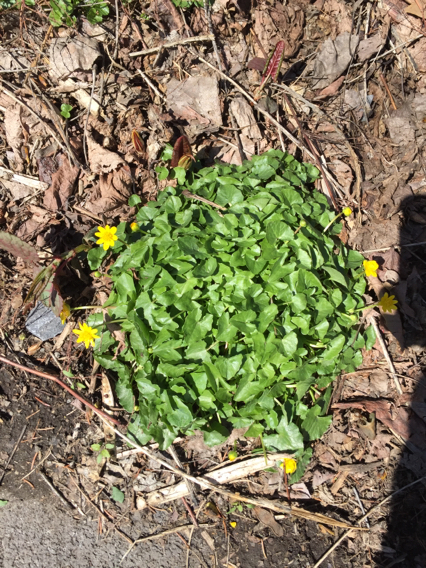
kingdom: Plantae
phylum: Tracheophyta
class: Magnoliopsida
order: Ranunculales
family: Ranunculaceae
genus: Ficaria
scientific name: Ficaria verna
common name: Lesser celandine
